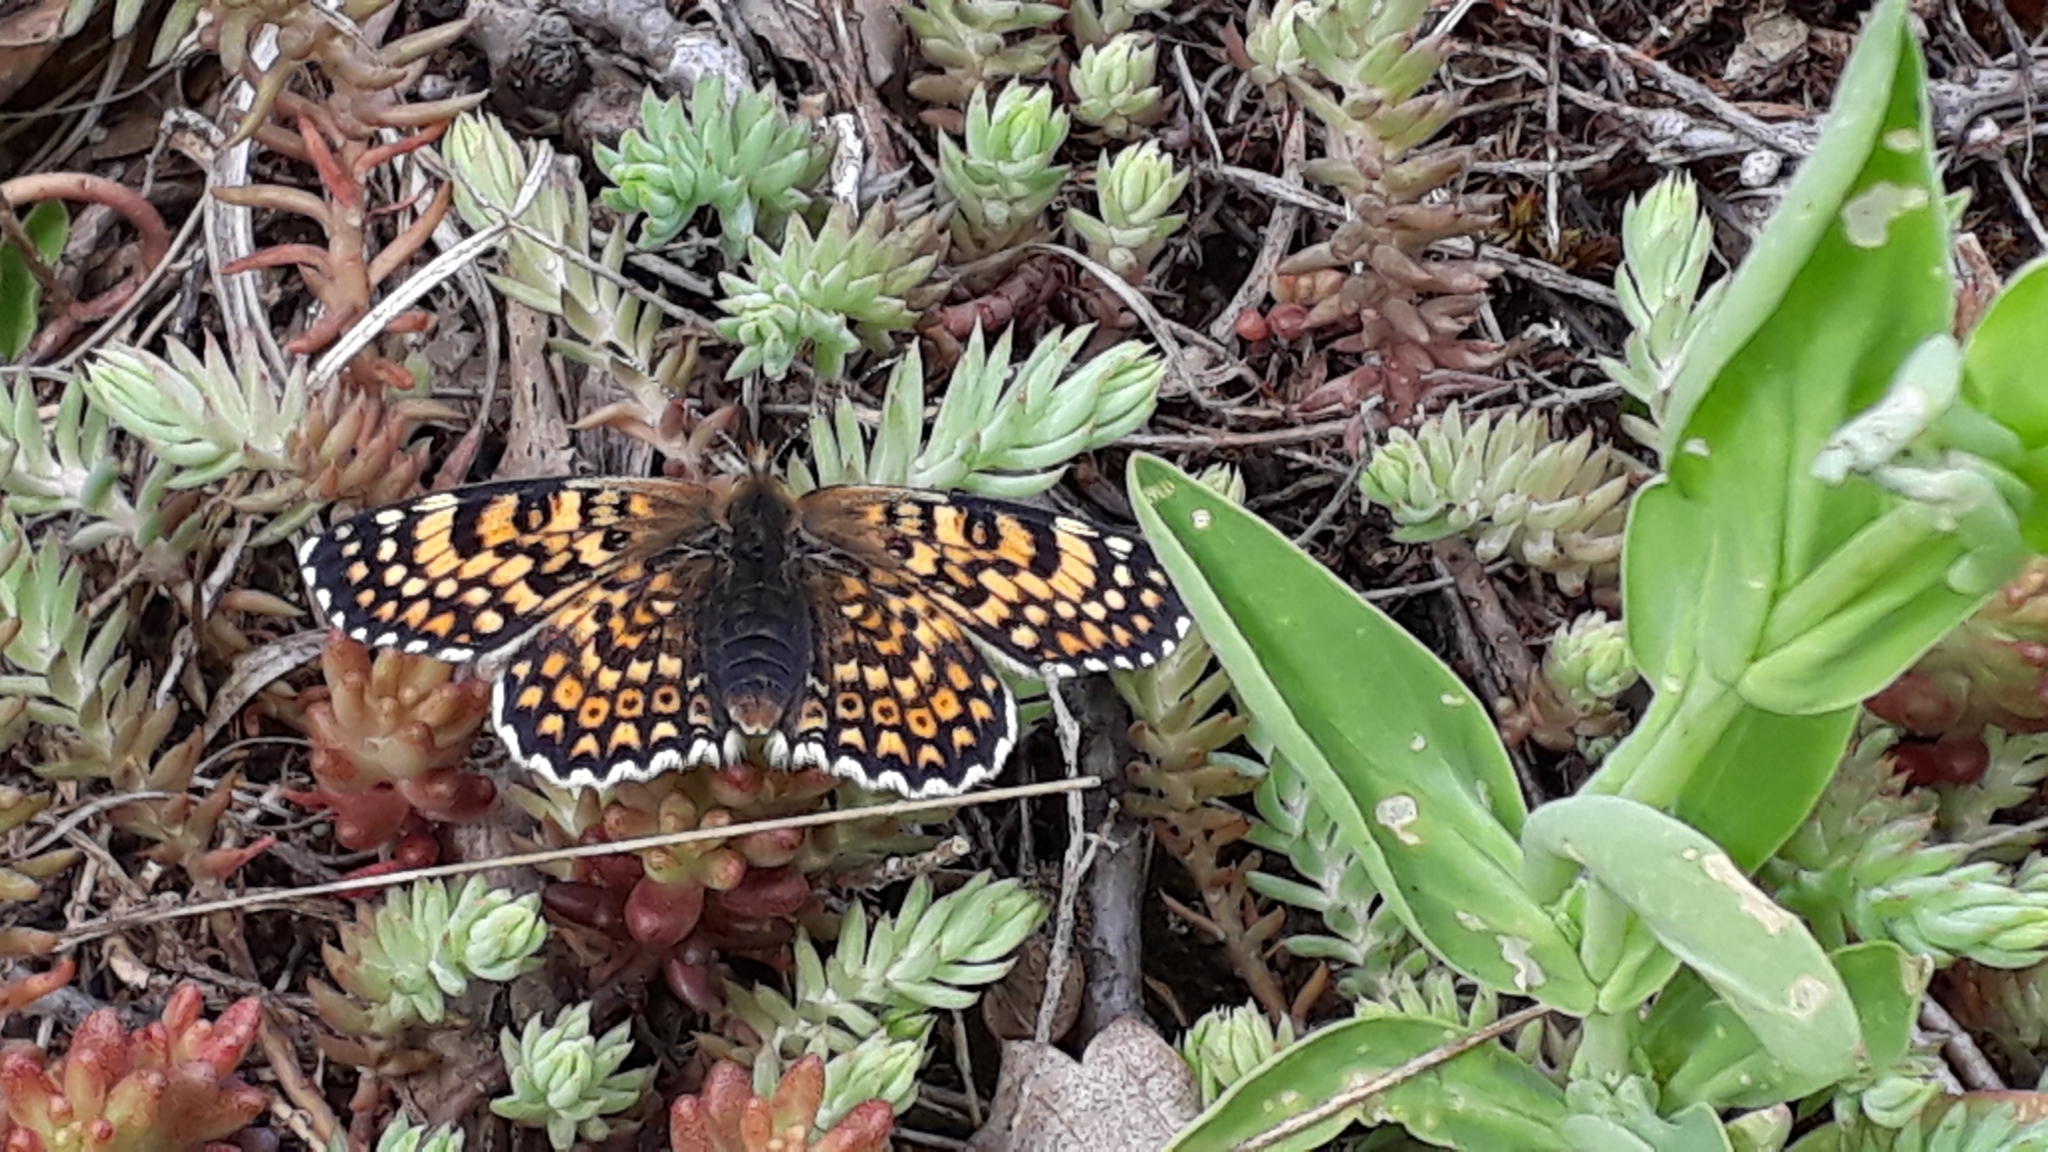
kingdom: Animalia
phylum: Arthropoda
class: Insecta
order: Lepidoptera
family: Nymphalidae
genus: Melitaea
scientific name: Melitaea cinxia
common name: Glanville fritillary
